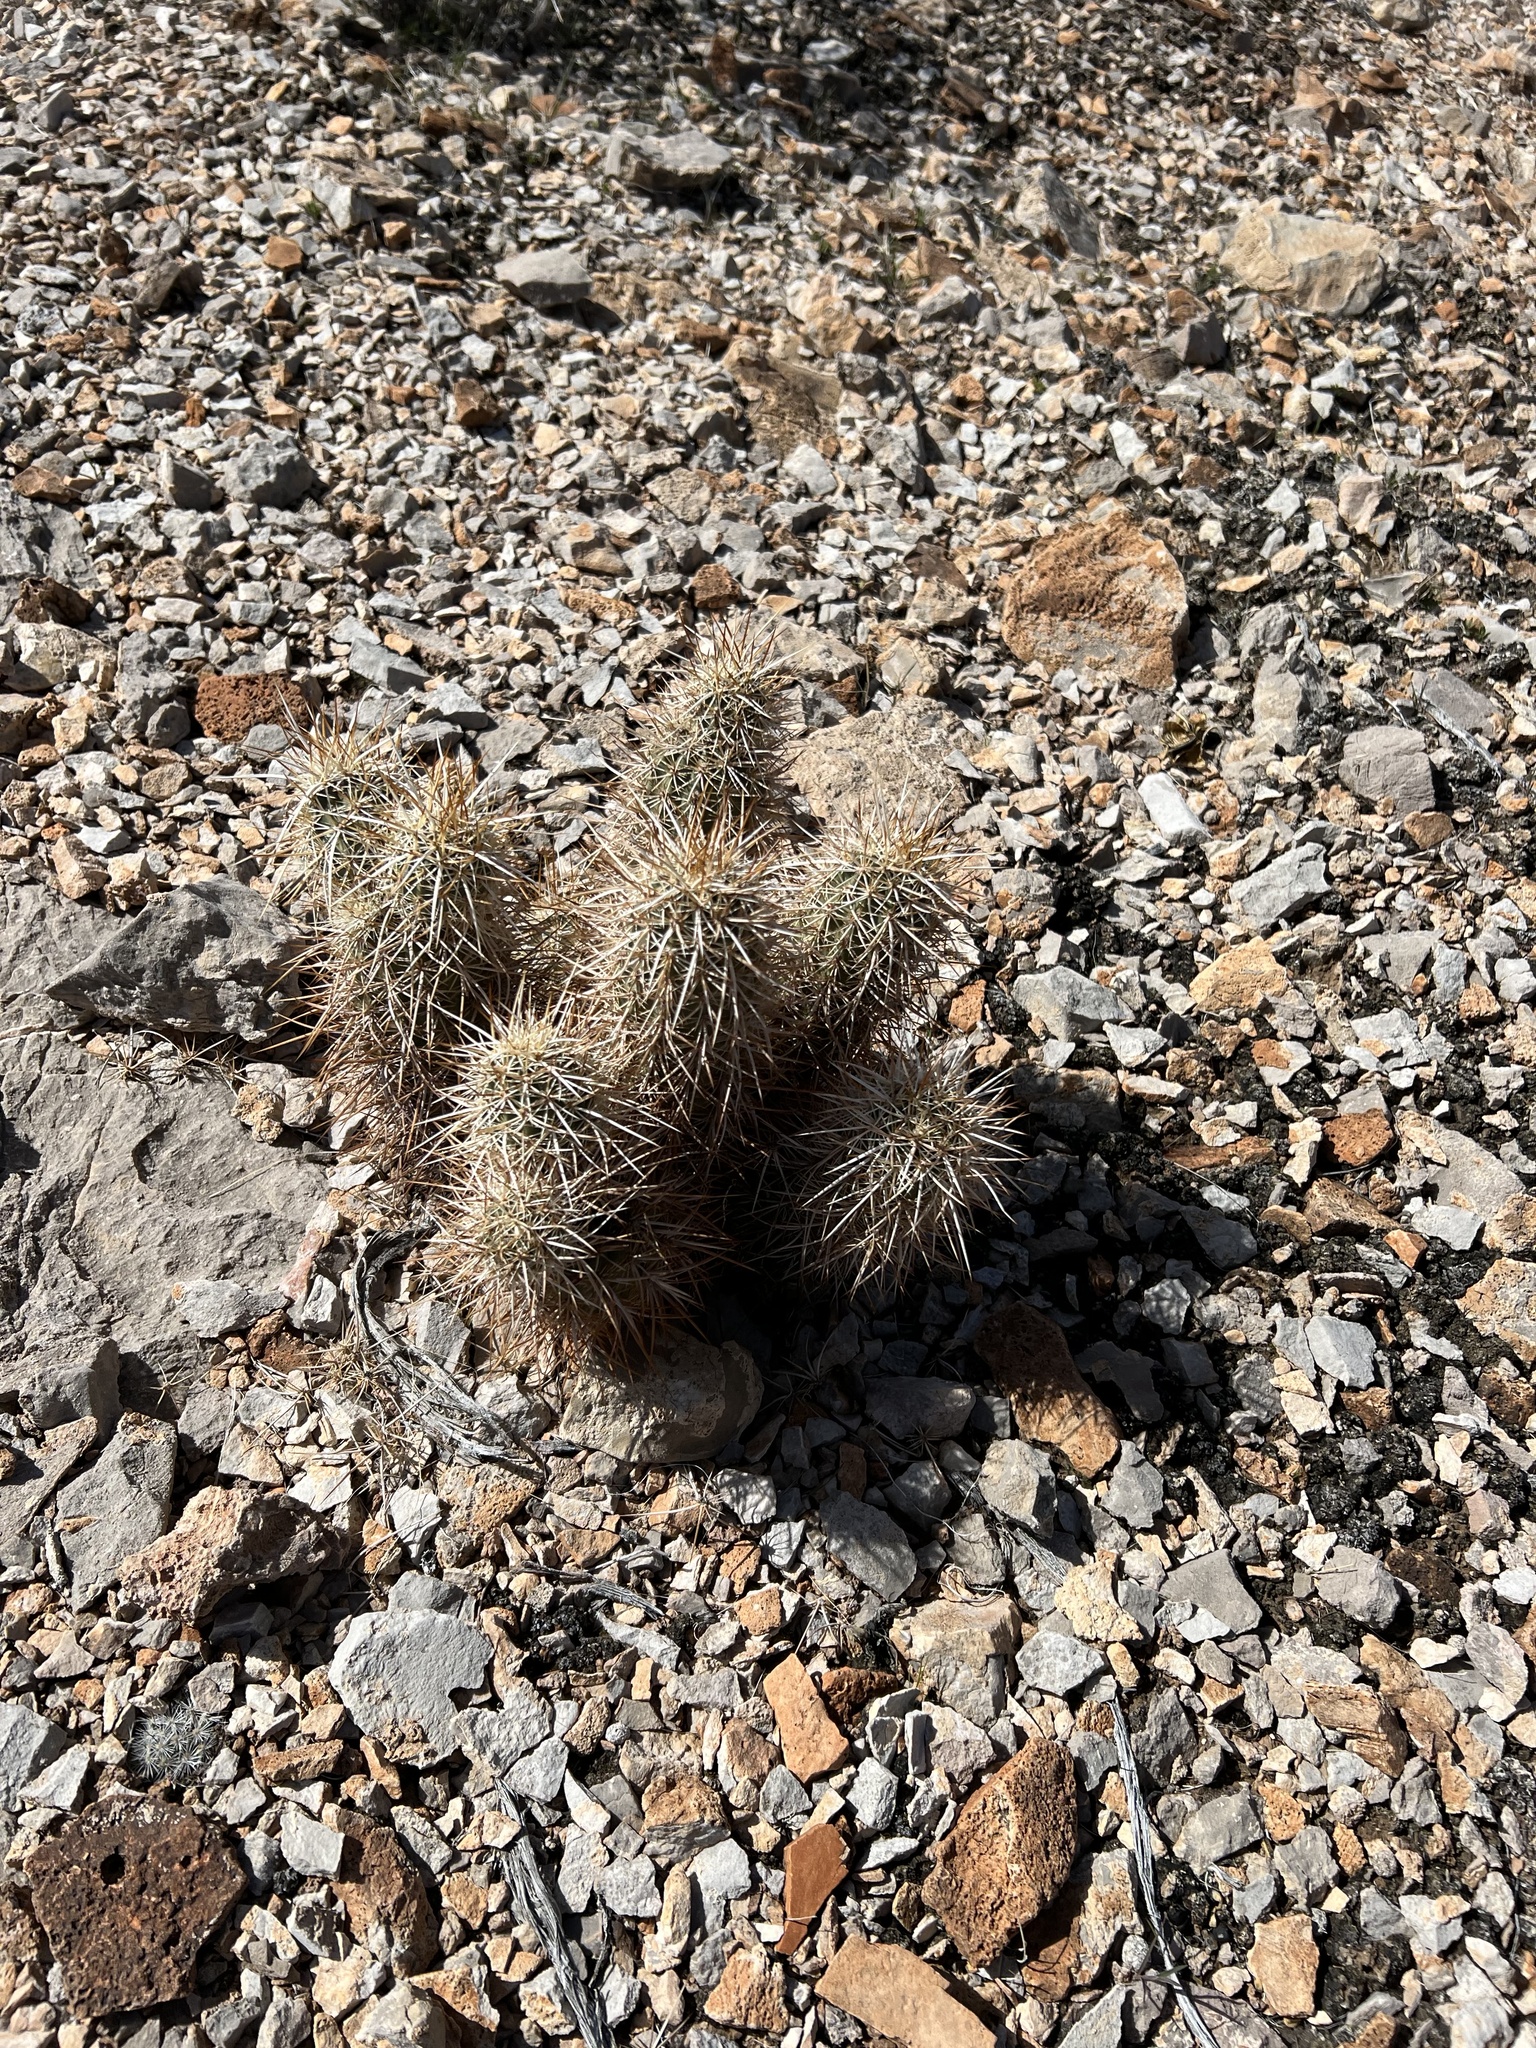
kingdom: Plantae
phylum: Tracheophyta
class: Magnoliopsida
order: Caryophyllales
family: Cactaceae
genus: Echinocereus
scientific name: Echinocereus engelmannii
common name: Engelmann's hedgehog cactus
